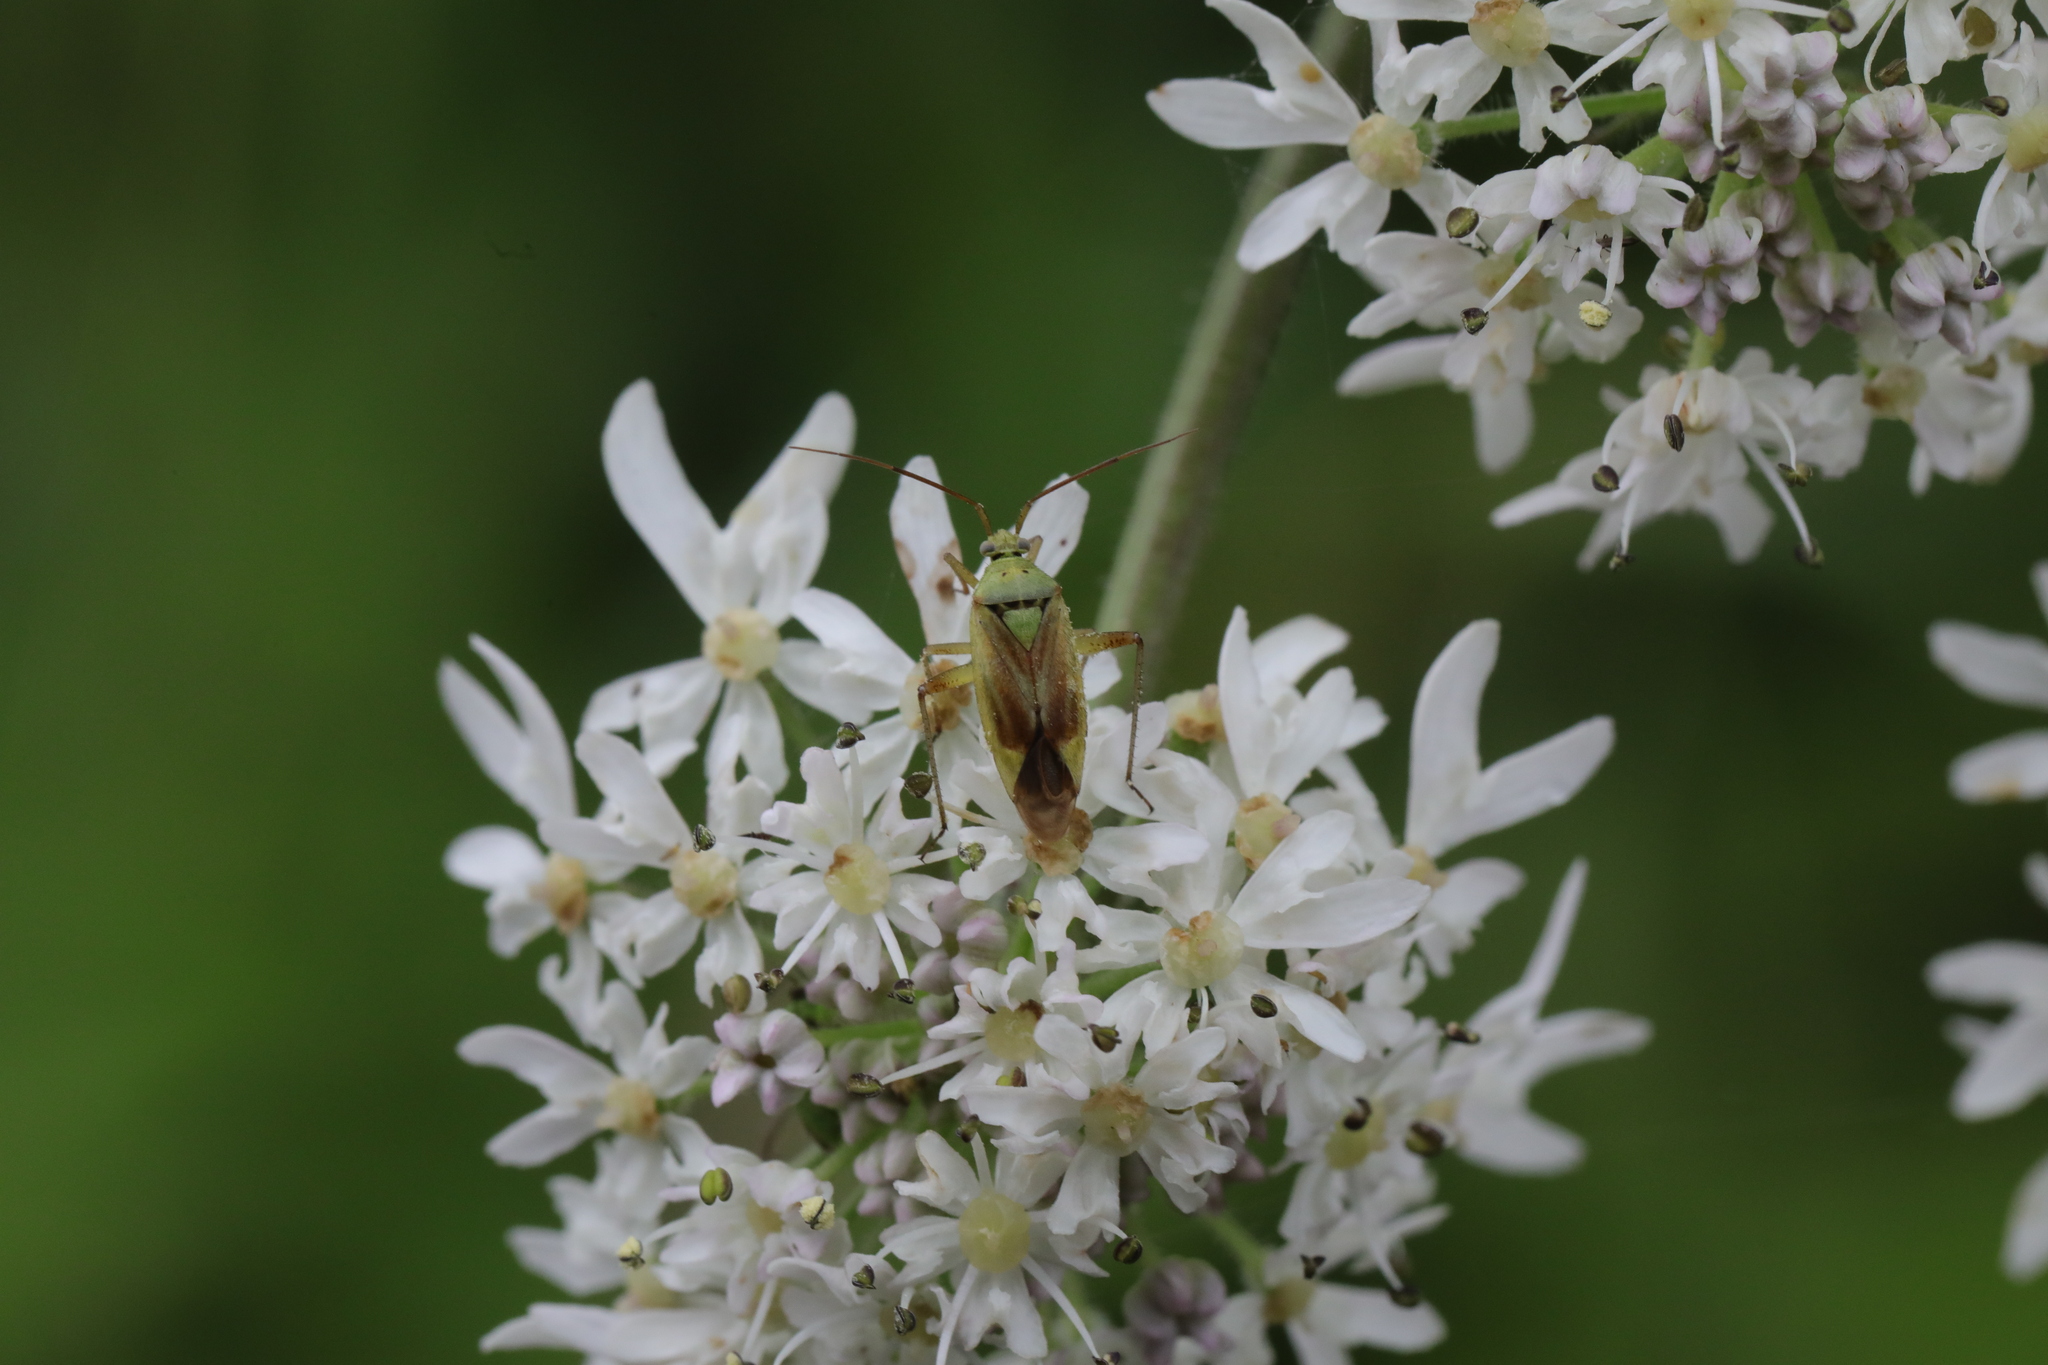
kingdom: Animalia
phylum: Arthropoda
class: Insecta
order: Hemiptera
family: Miridae
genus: Closterotomus
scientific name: Closterotomus norvegicus
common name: Plant bug
